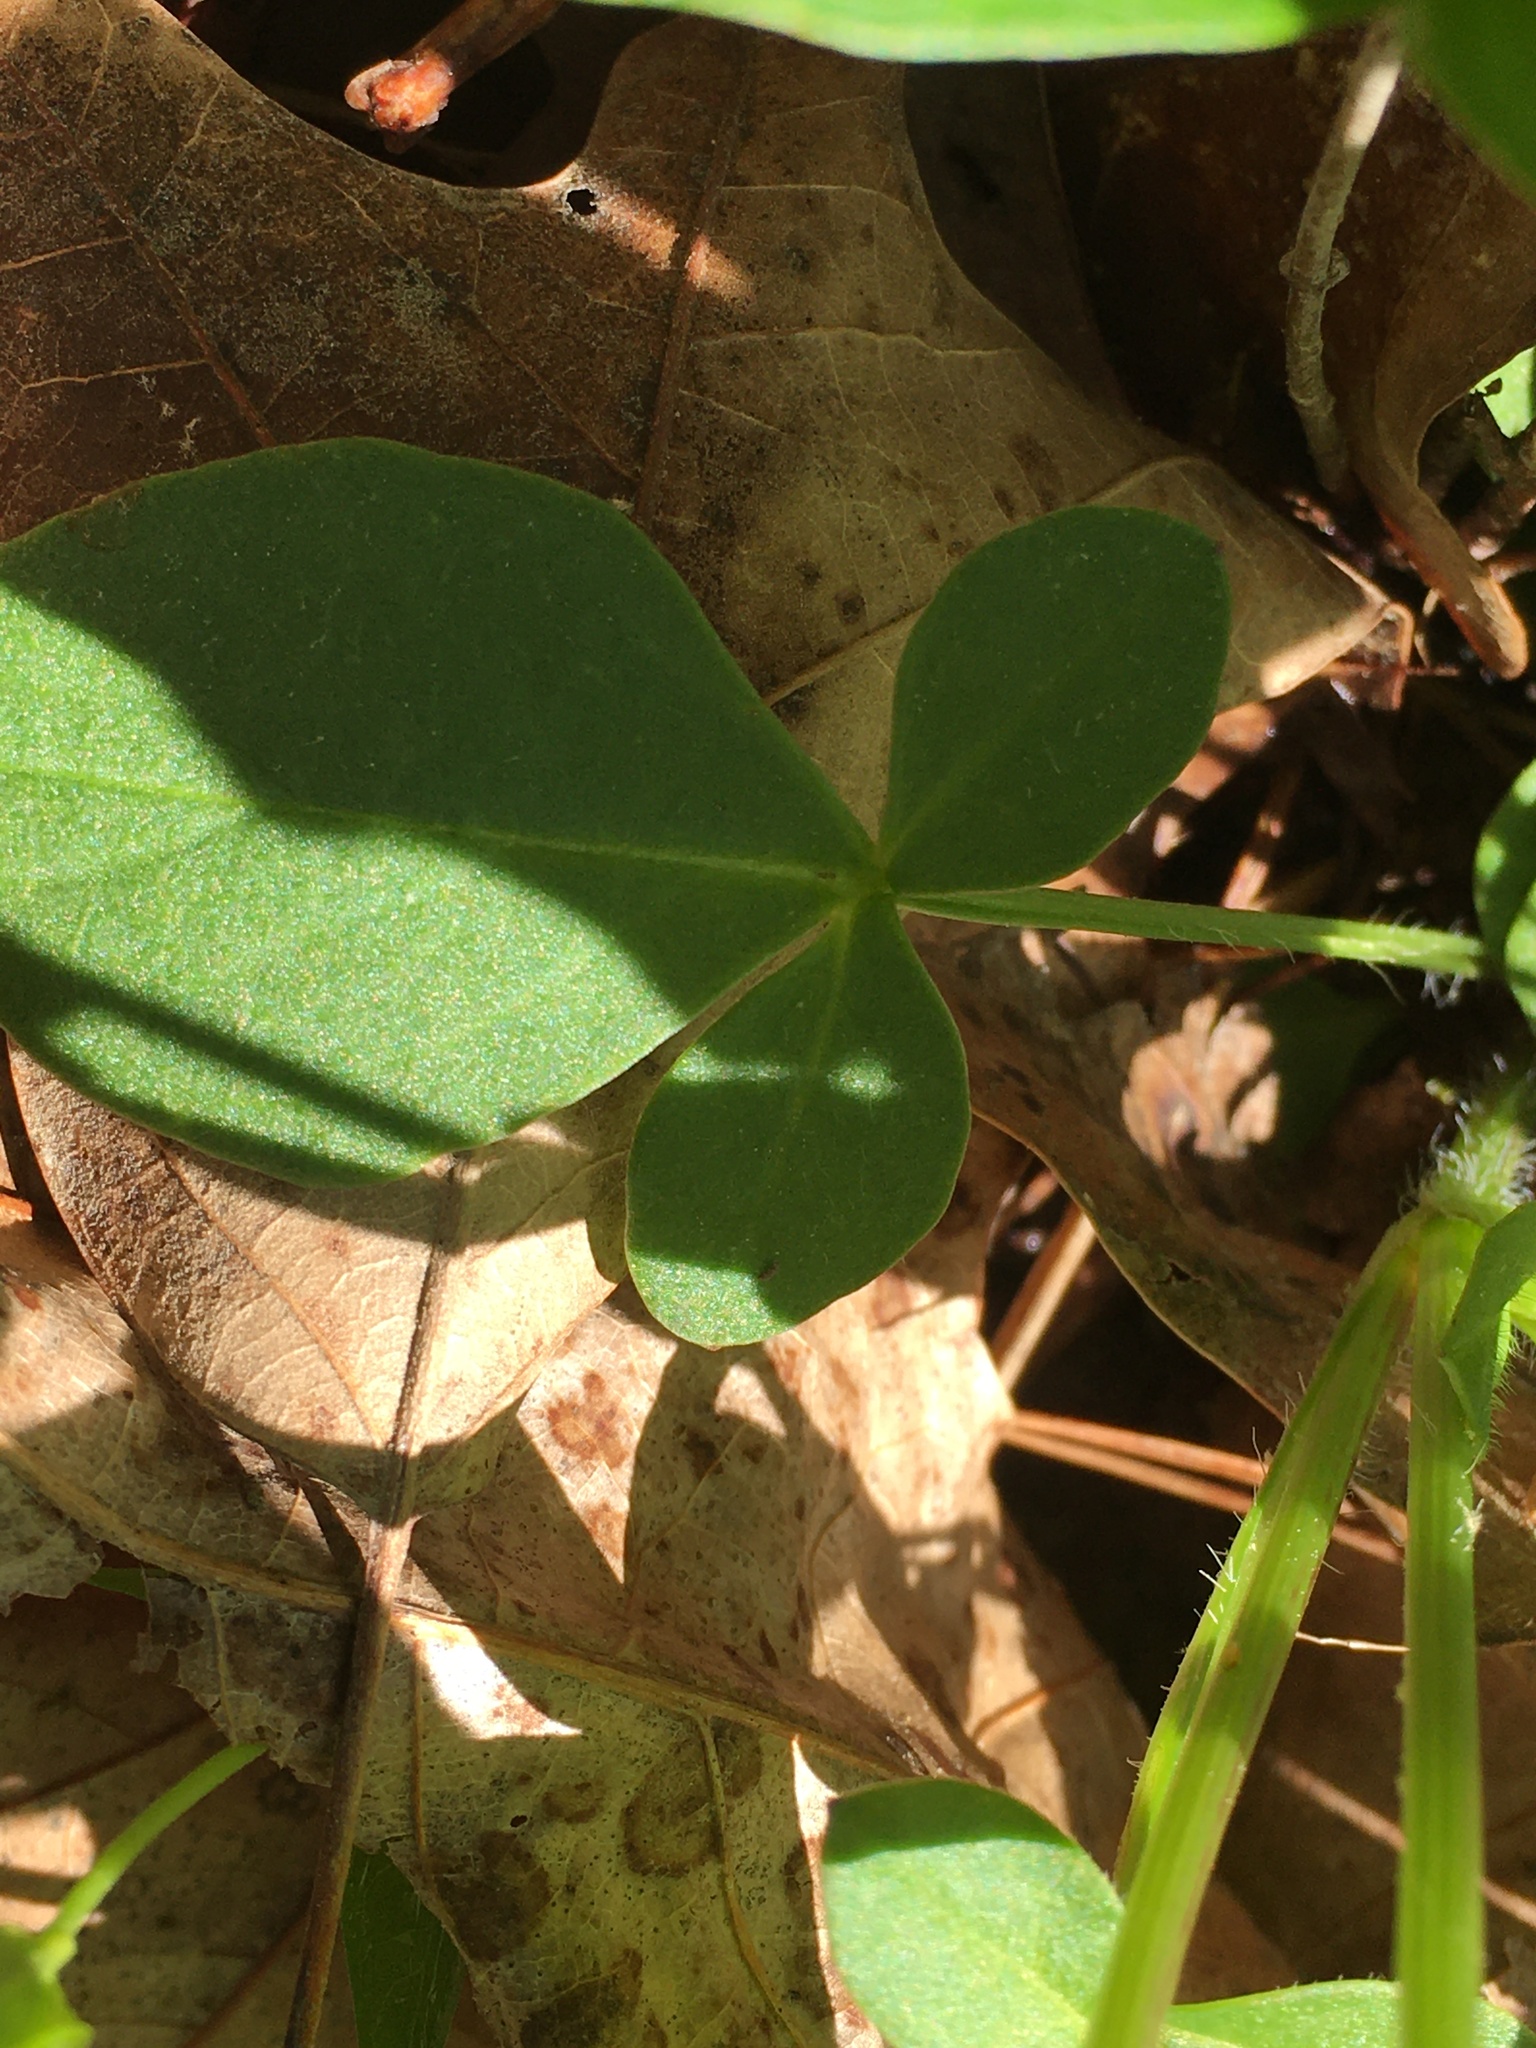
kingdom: Plantae
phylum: Tracheophyta
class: Magnoliopsida
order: Asterales
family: Asteraceae
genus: Coreopsis
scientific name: Coreopsis auriculata
